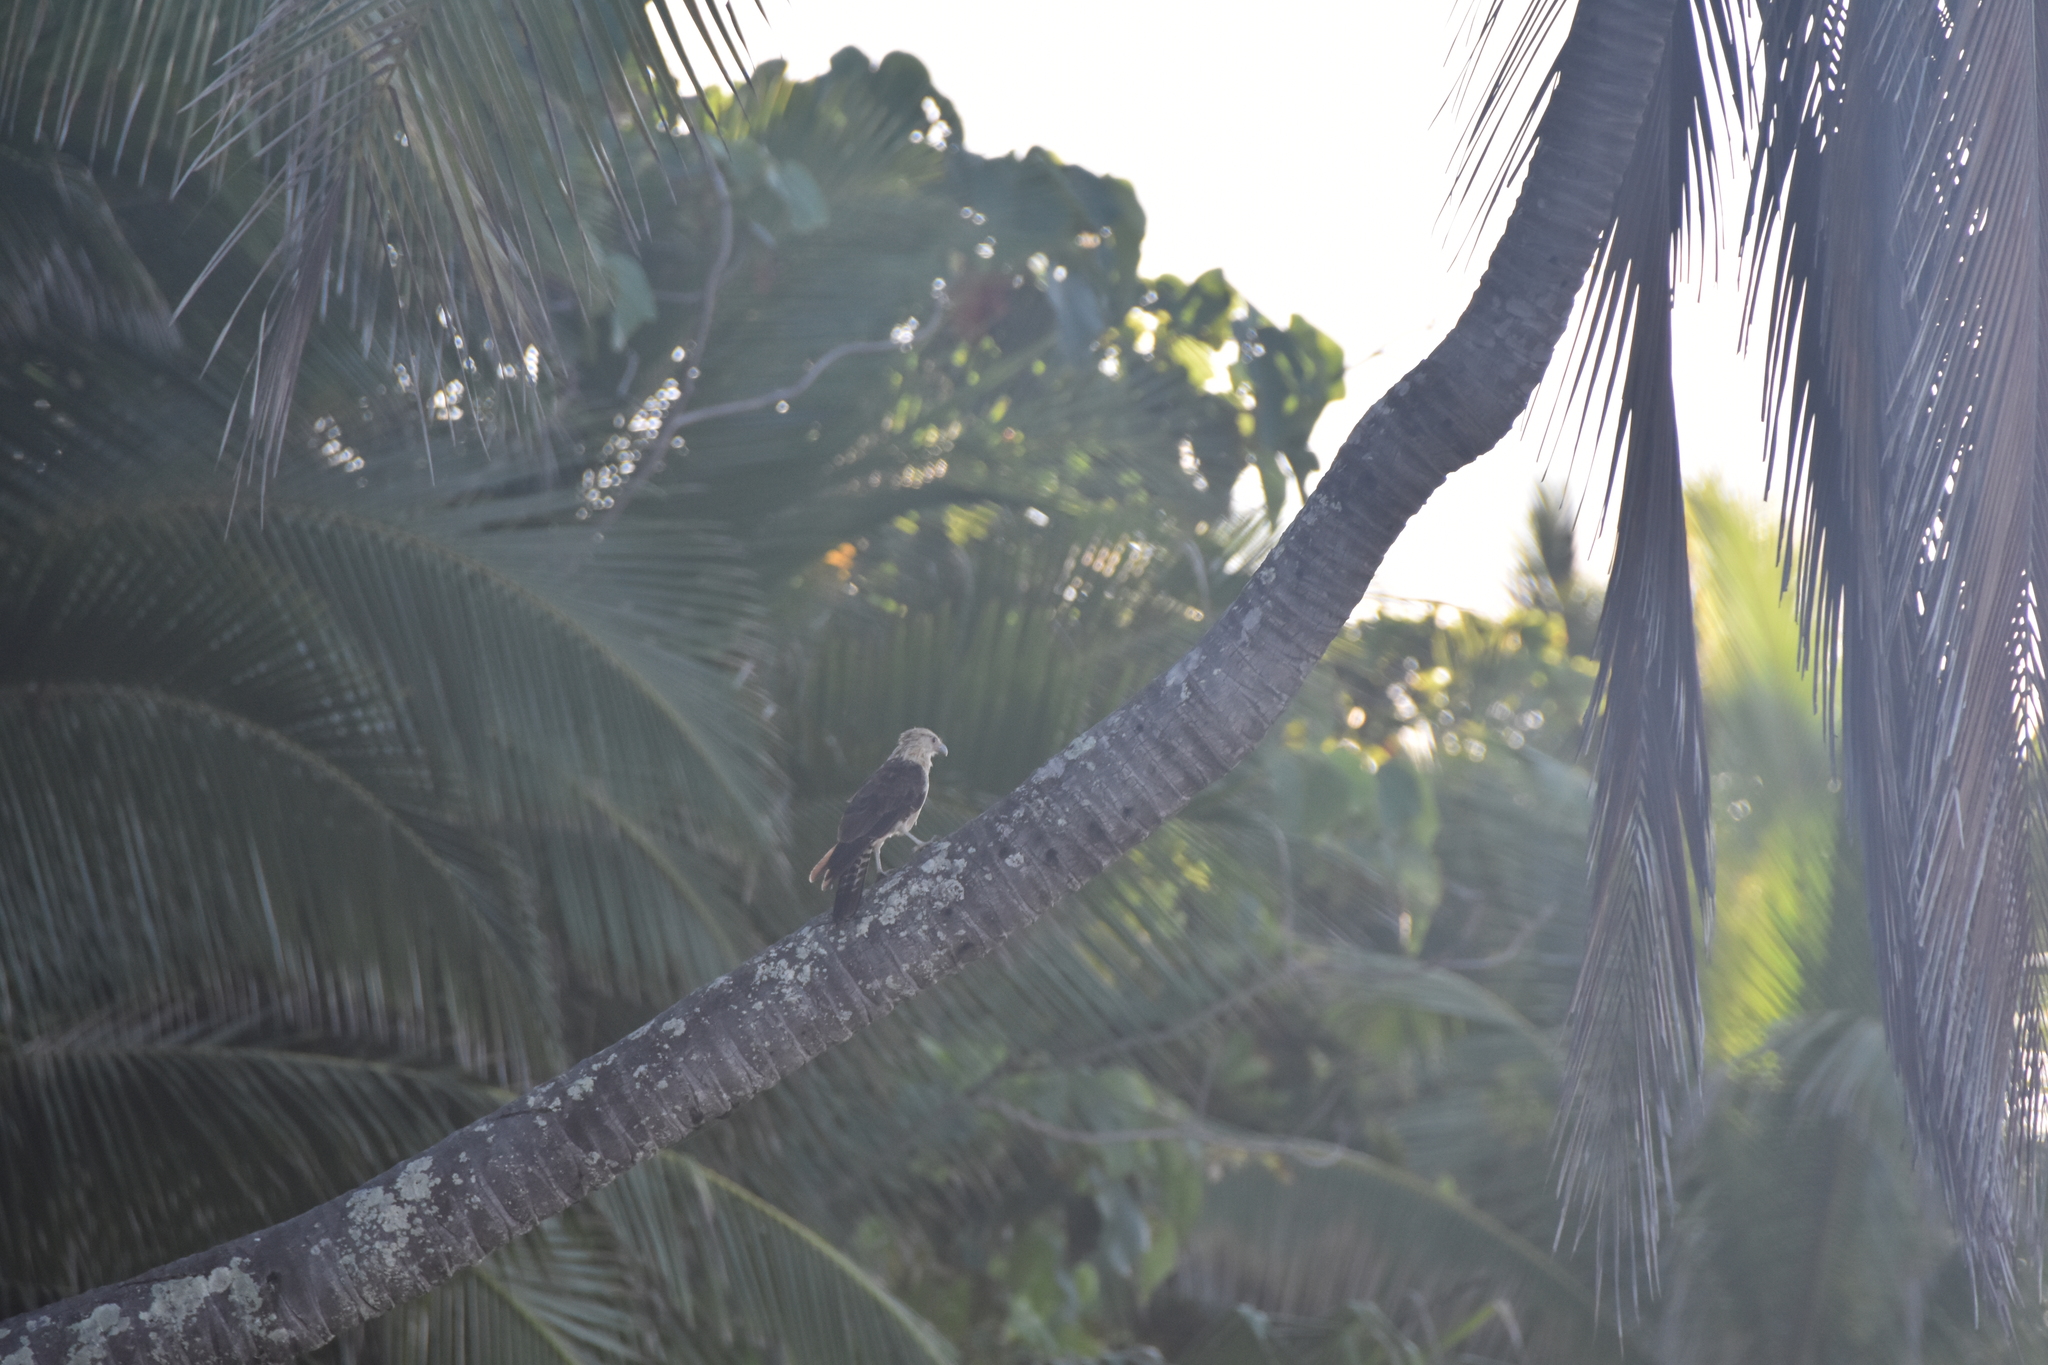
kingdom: Animalia
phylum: Chordata
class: Aves
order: Falconiformes
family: Falconidae
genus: Daptrius
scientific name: Daptrius
